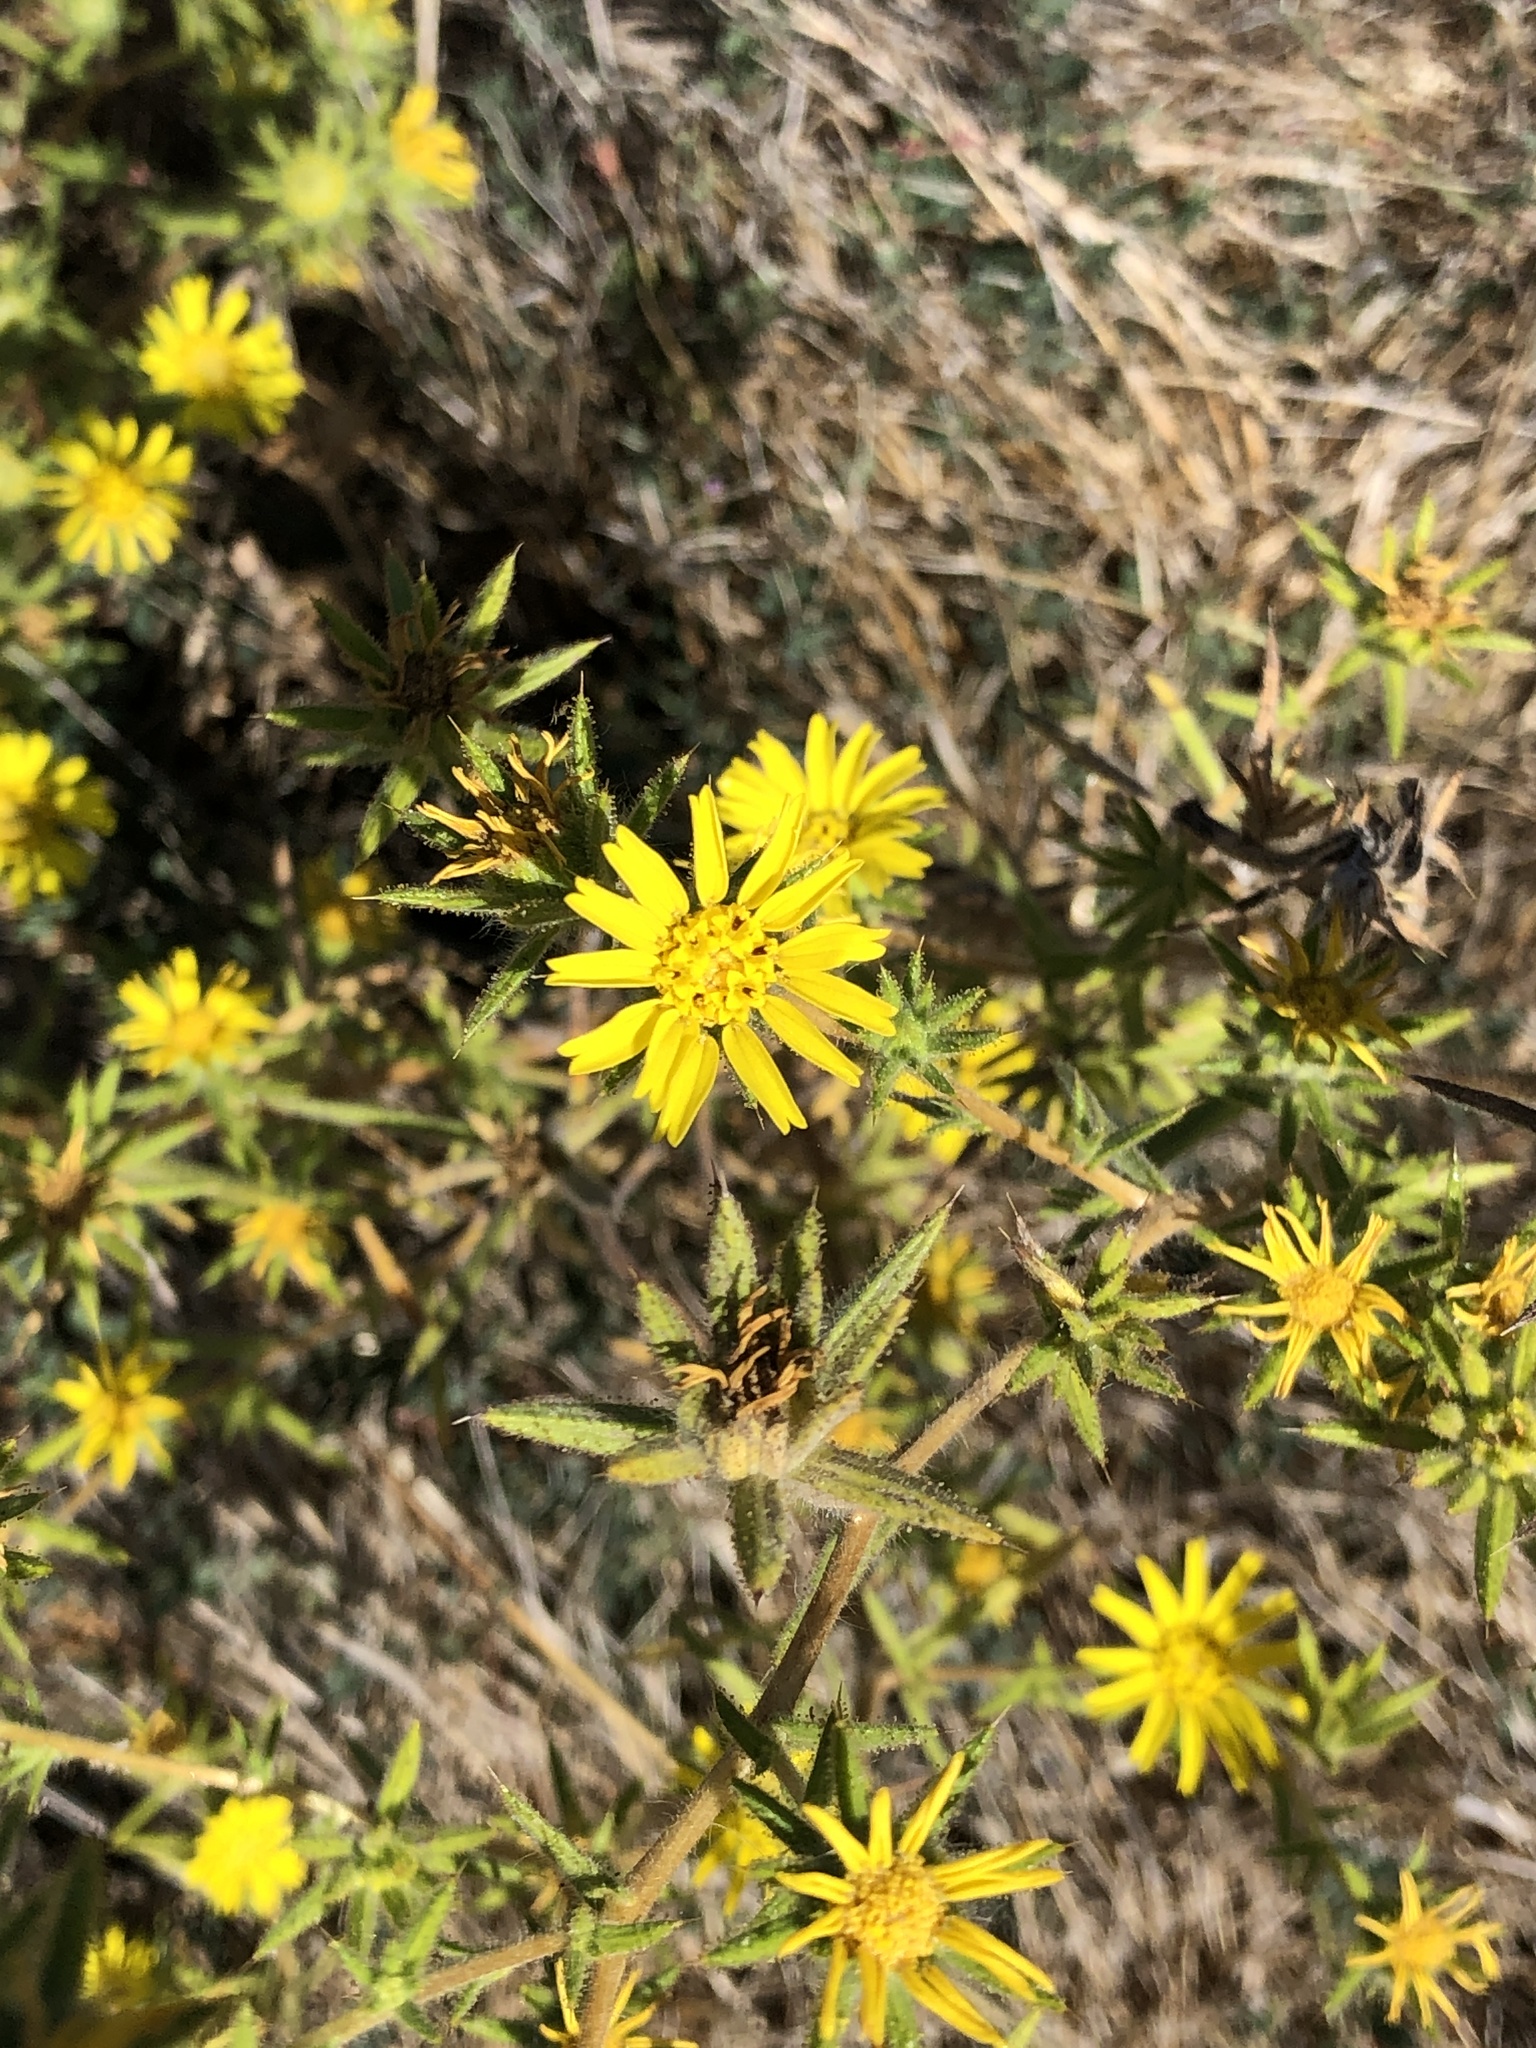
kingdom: Plantae
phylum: Tracheophyta
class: Magnoliopsida
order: Asterales
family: Asteraceae
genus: Centromadia
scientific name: Centromadia fitchii
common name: Fitch's spikeweed
